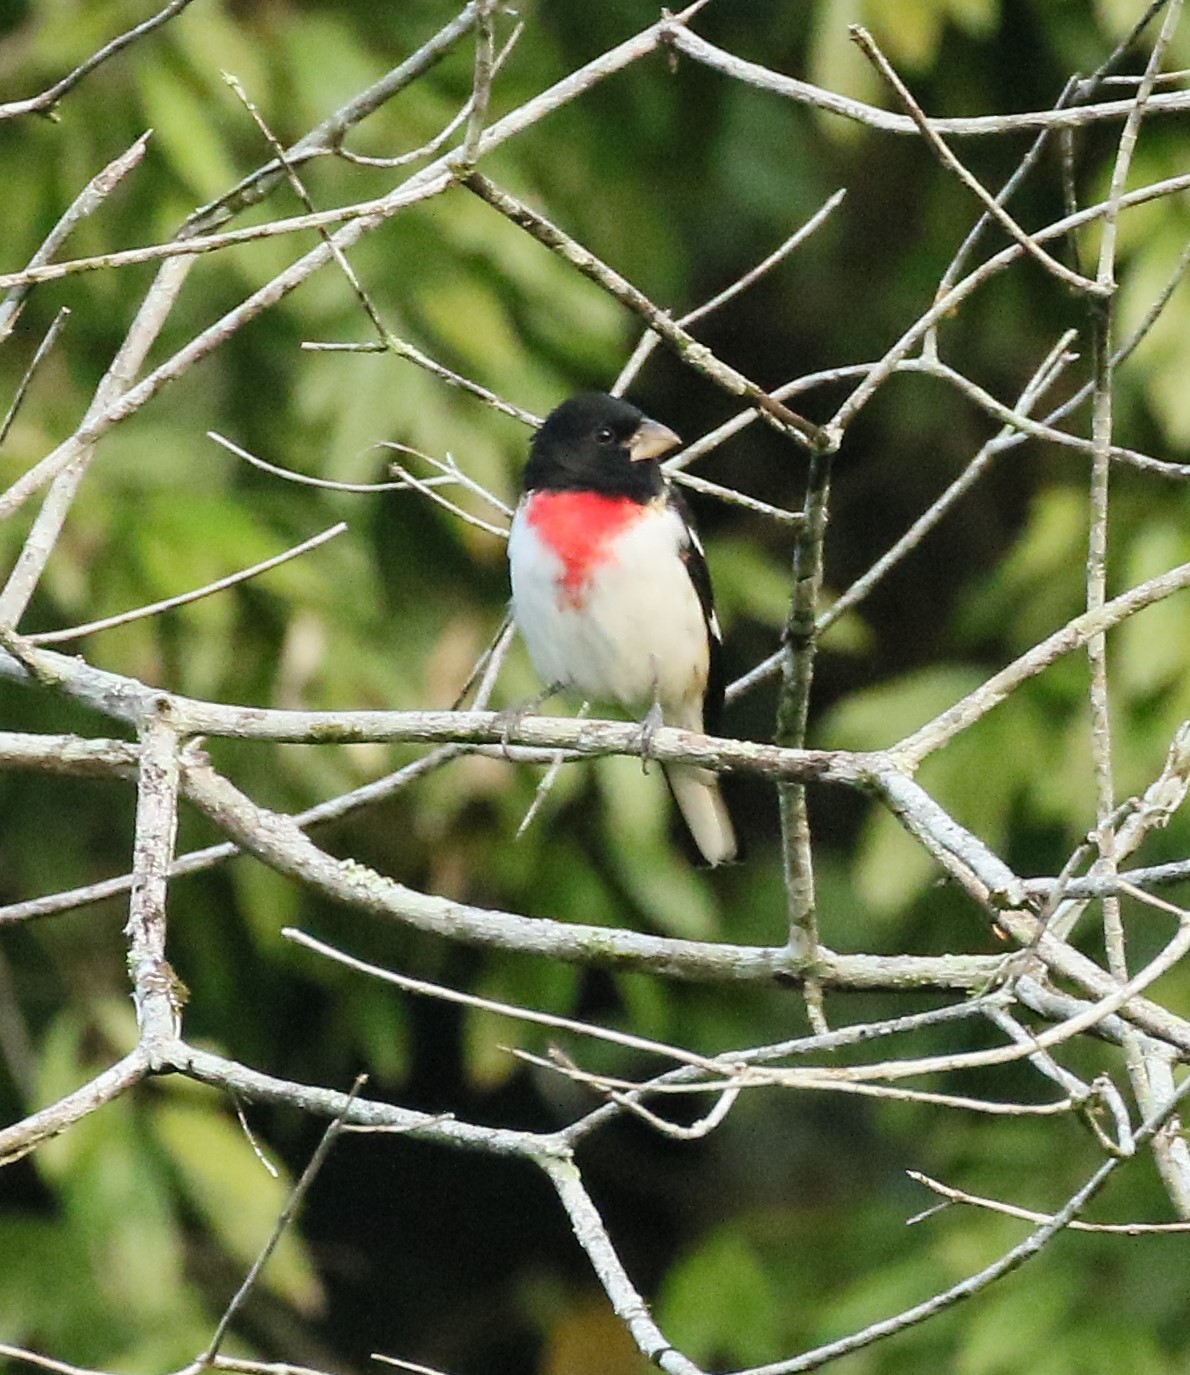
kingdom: Animalia
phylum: Chordata
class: Aves
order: Passeriformes
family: Cardinalidae
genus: Pheucticus
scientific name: Pheucticus ludovicianus
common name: Rose-breasted grosbeak
